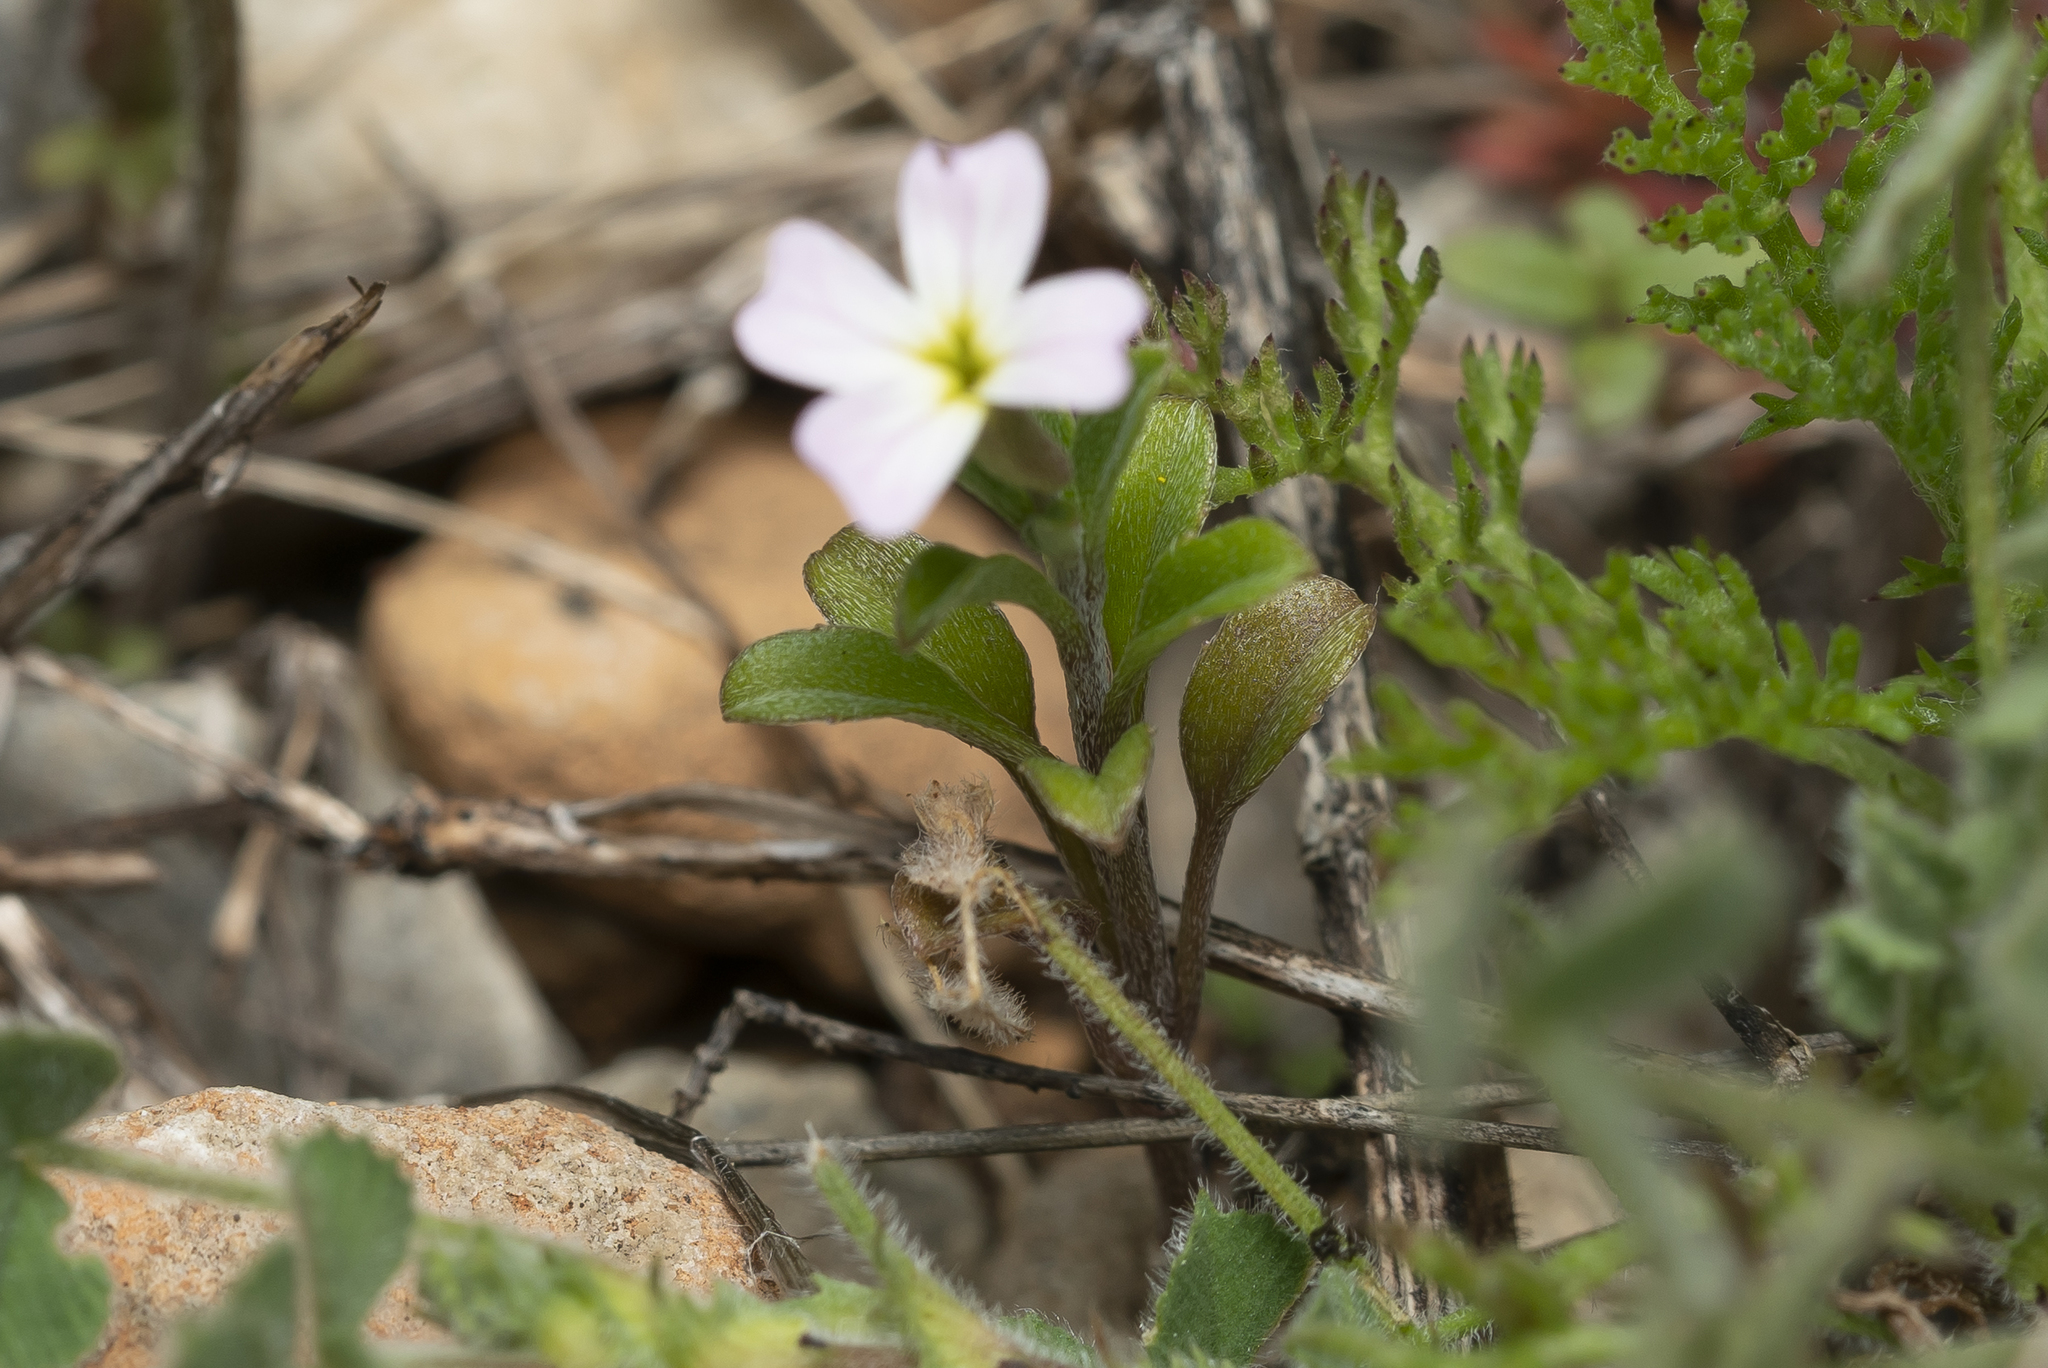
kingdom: Plantae
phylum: Tracheophyta
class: Magnoliopsida
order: Brassicales
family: Brassicaceae
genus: Malcolmia
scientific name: Malcolmia
